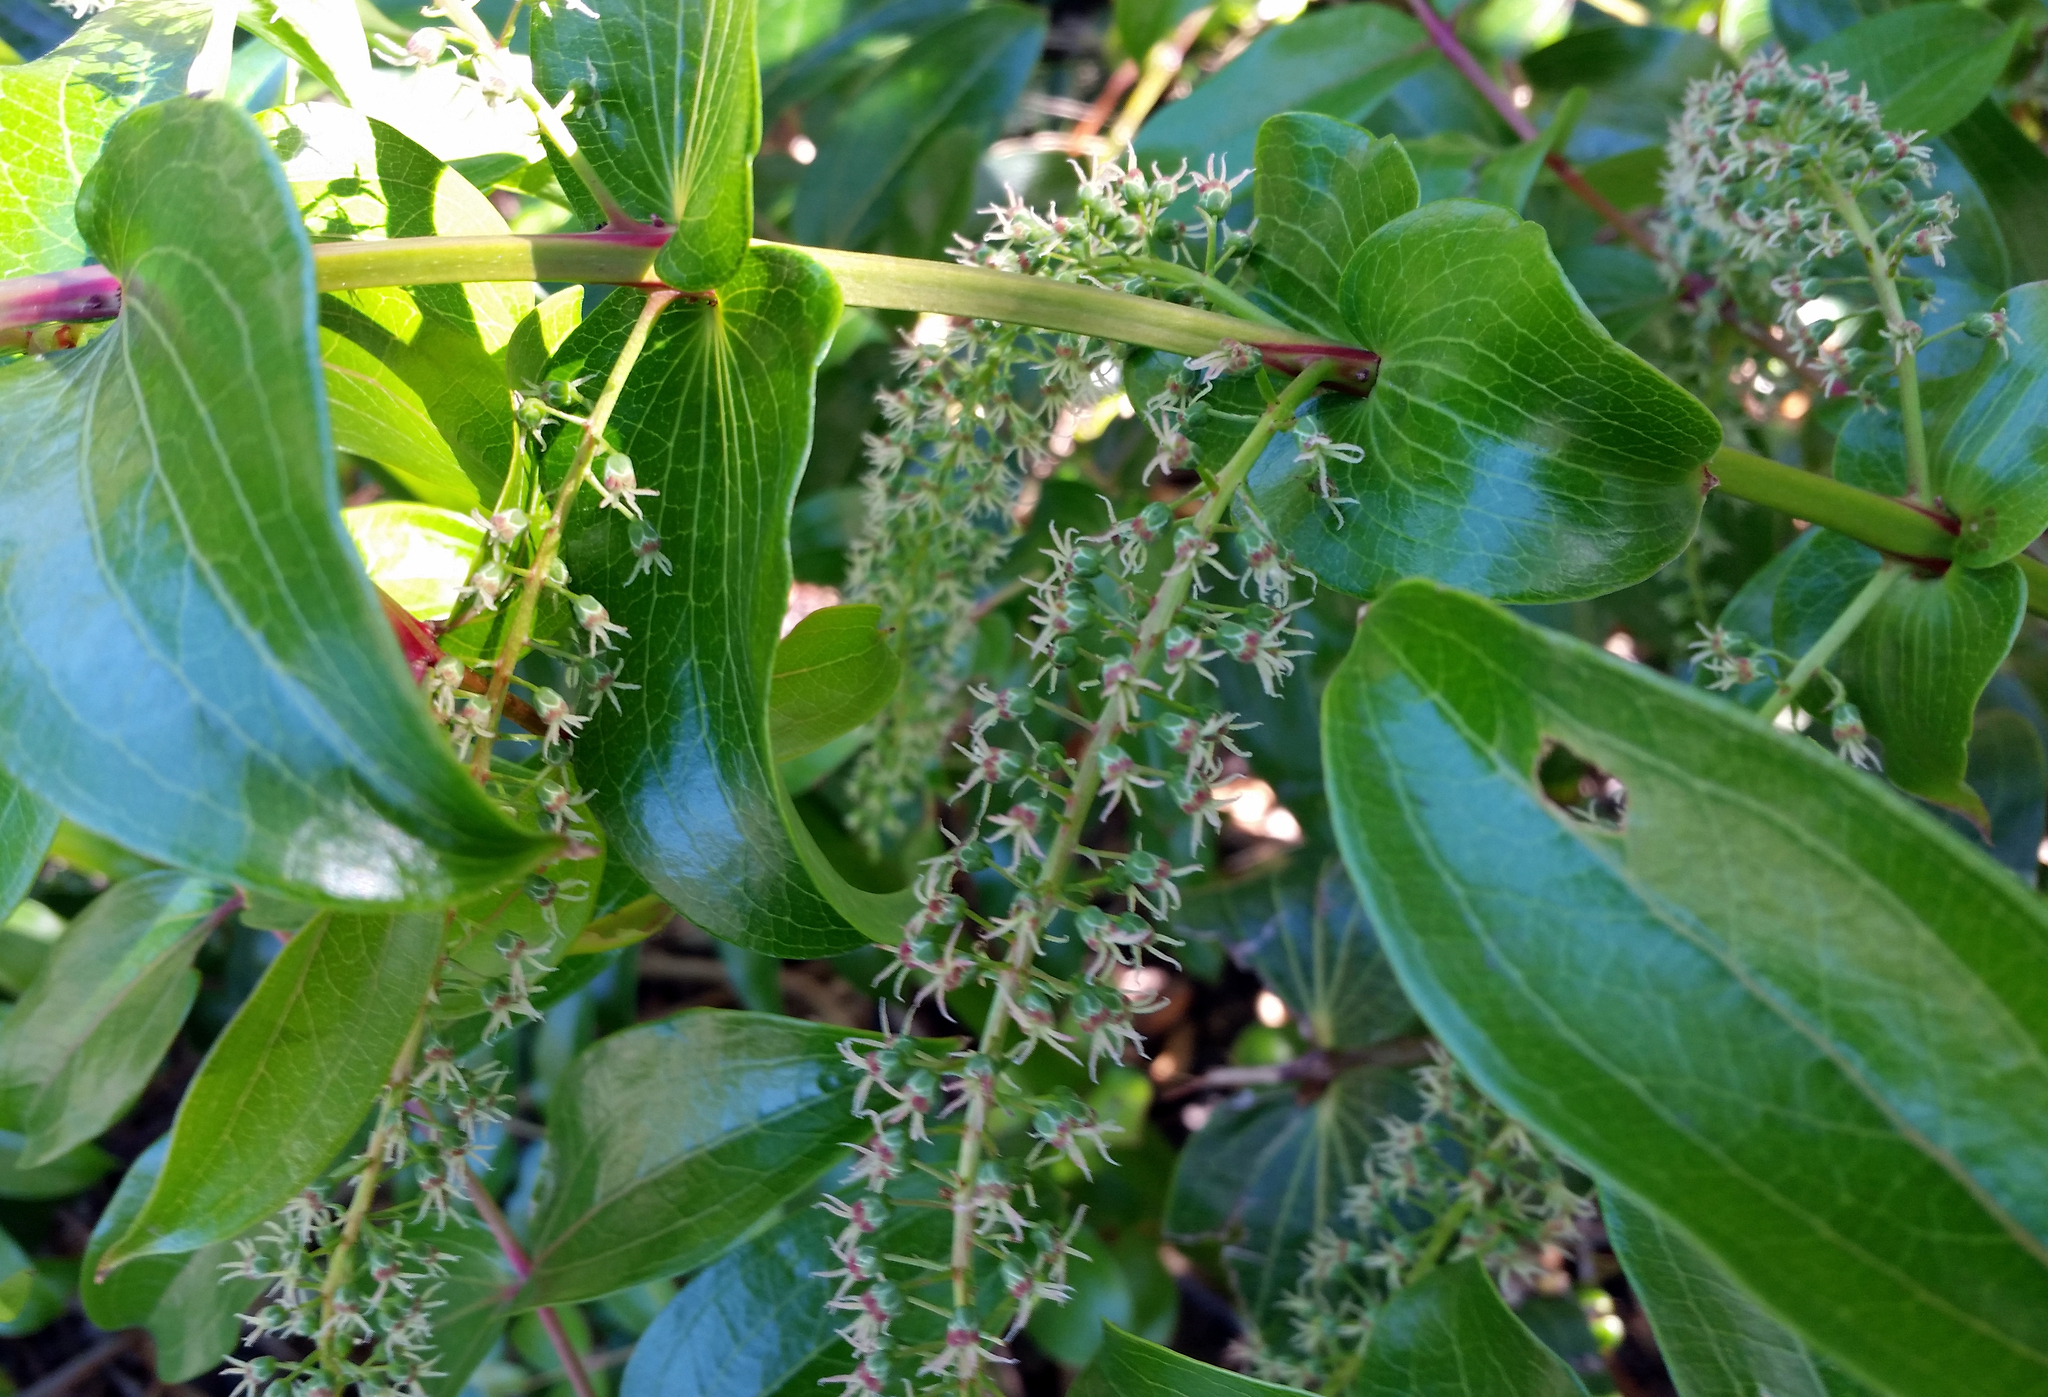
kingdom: Plantae
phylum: Tracheophyta
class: Magnoliopsida
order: Cucurbitales
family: Coriariaceae
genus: Coriaria
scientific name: Coriaria arborea
